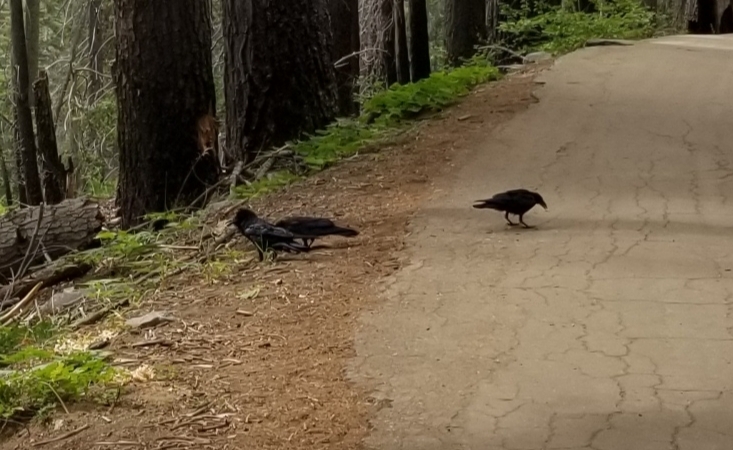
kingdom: Animalia
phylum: Chordata
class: Aves
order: Passeriformes
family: Corvidae
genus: Corvus
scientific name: Corvus corax
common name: Common raven
